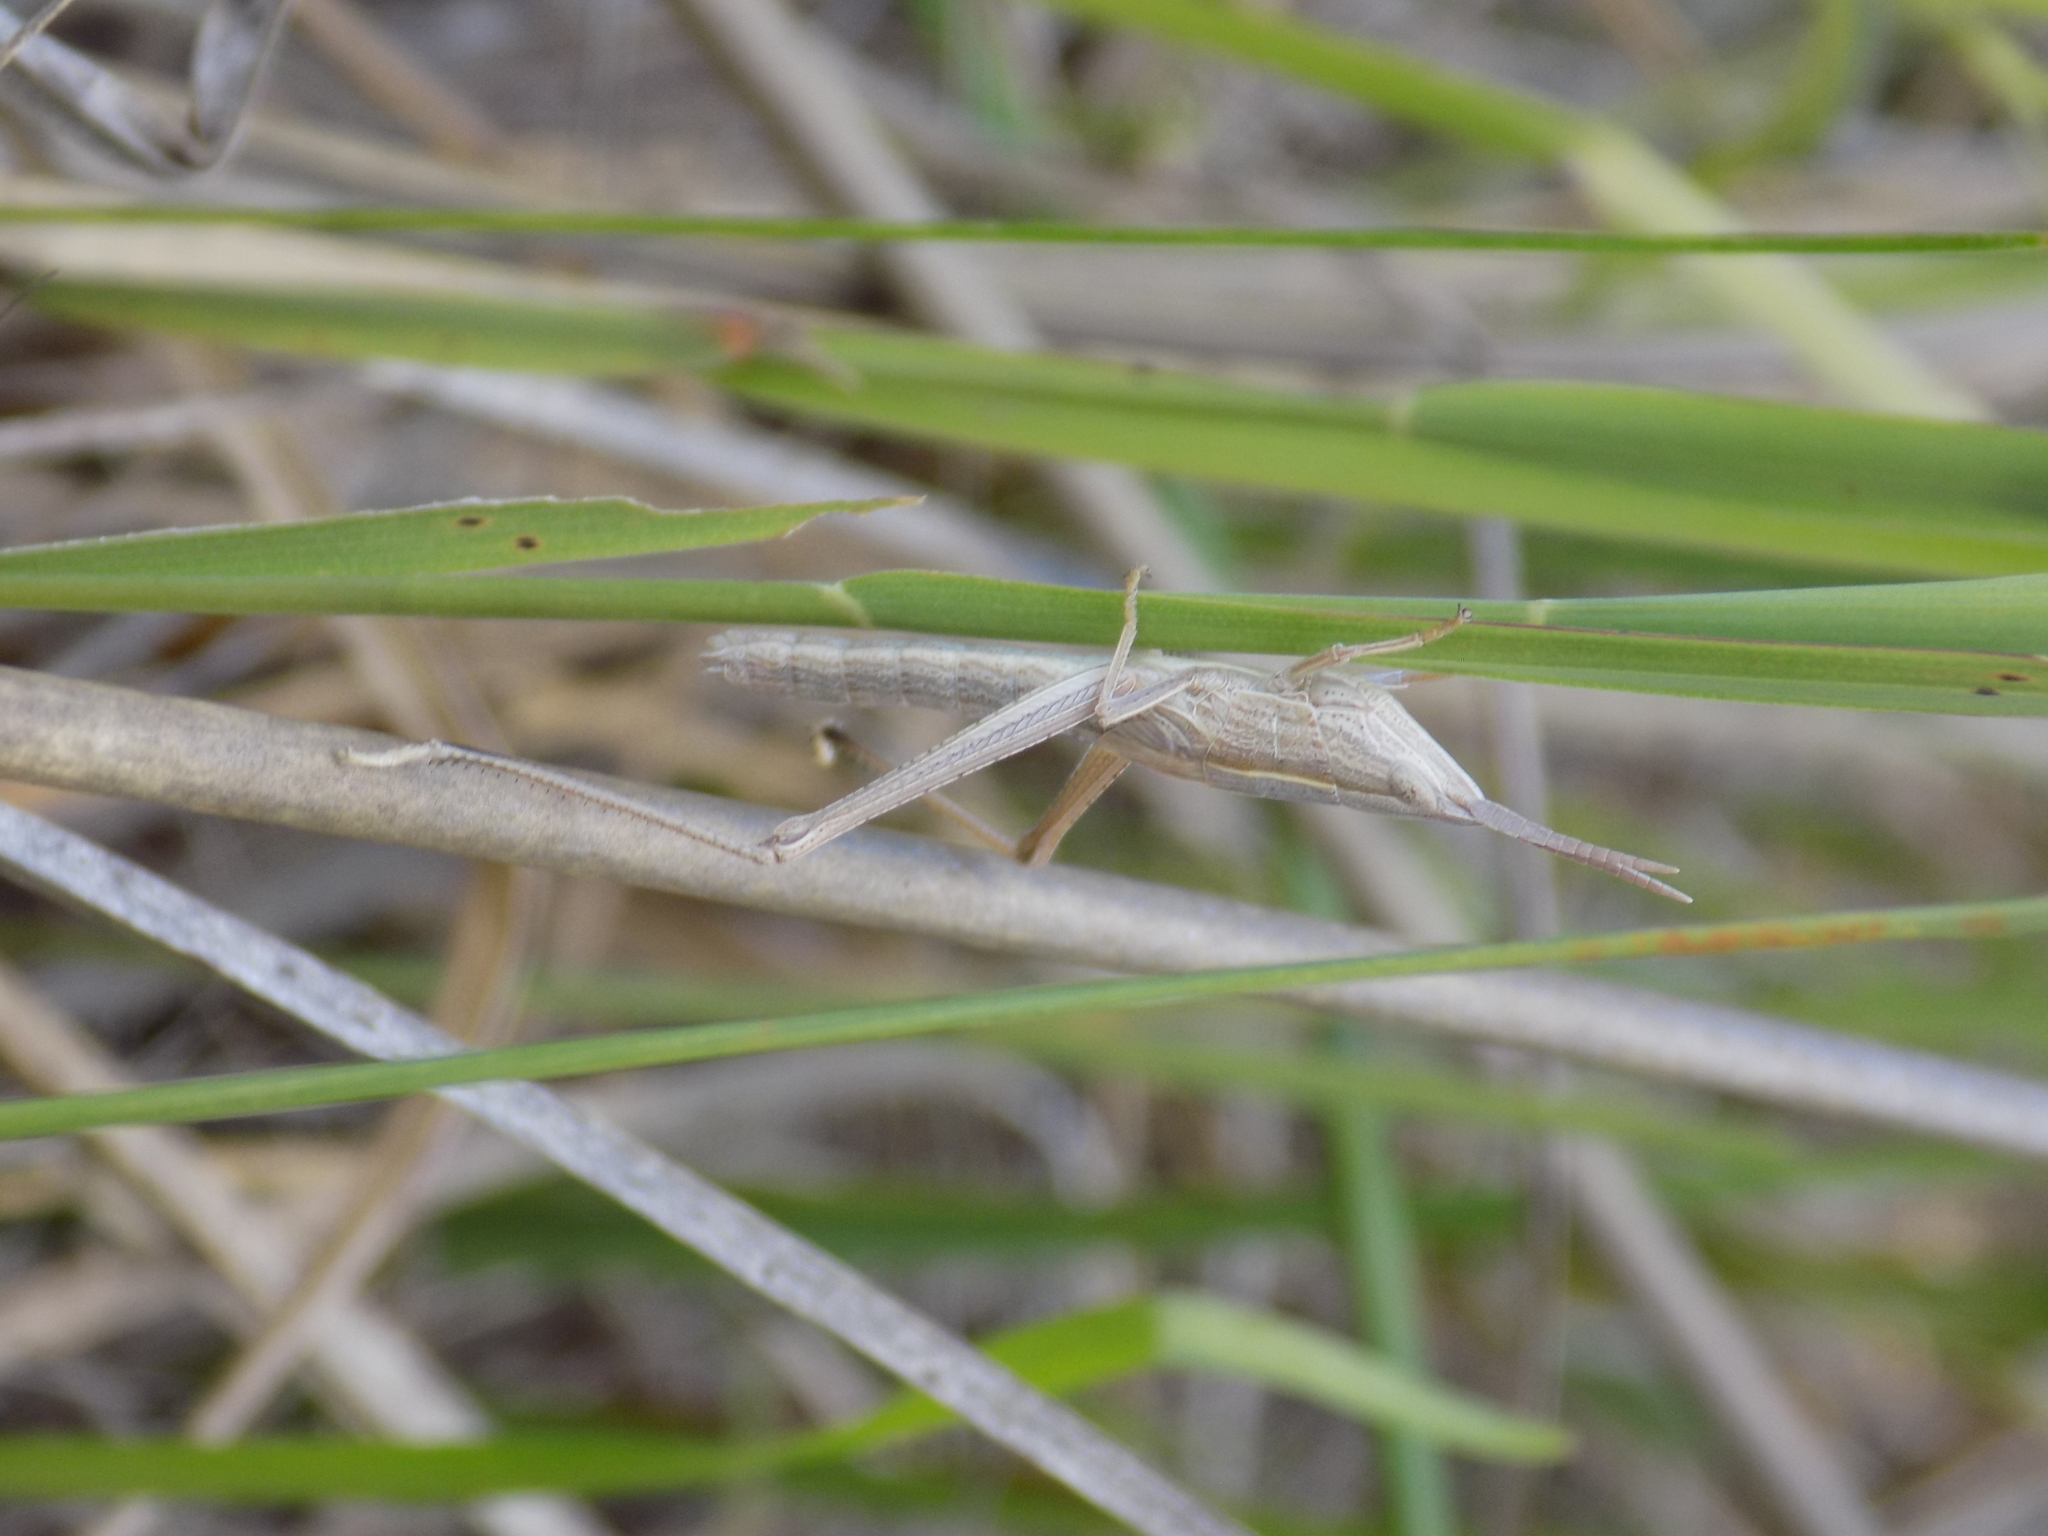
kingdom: Animalia
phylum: Arthropoda
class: Insecta
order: Orthoptera
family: Acrididae
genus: Pseudopomala
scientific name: Pseudopomala brachyptera
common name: Bunchgrass grasshopper
